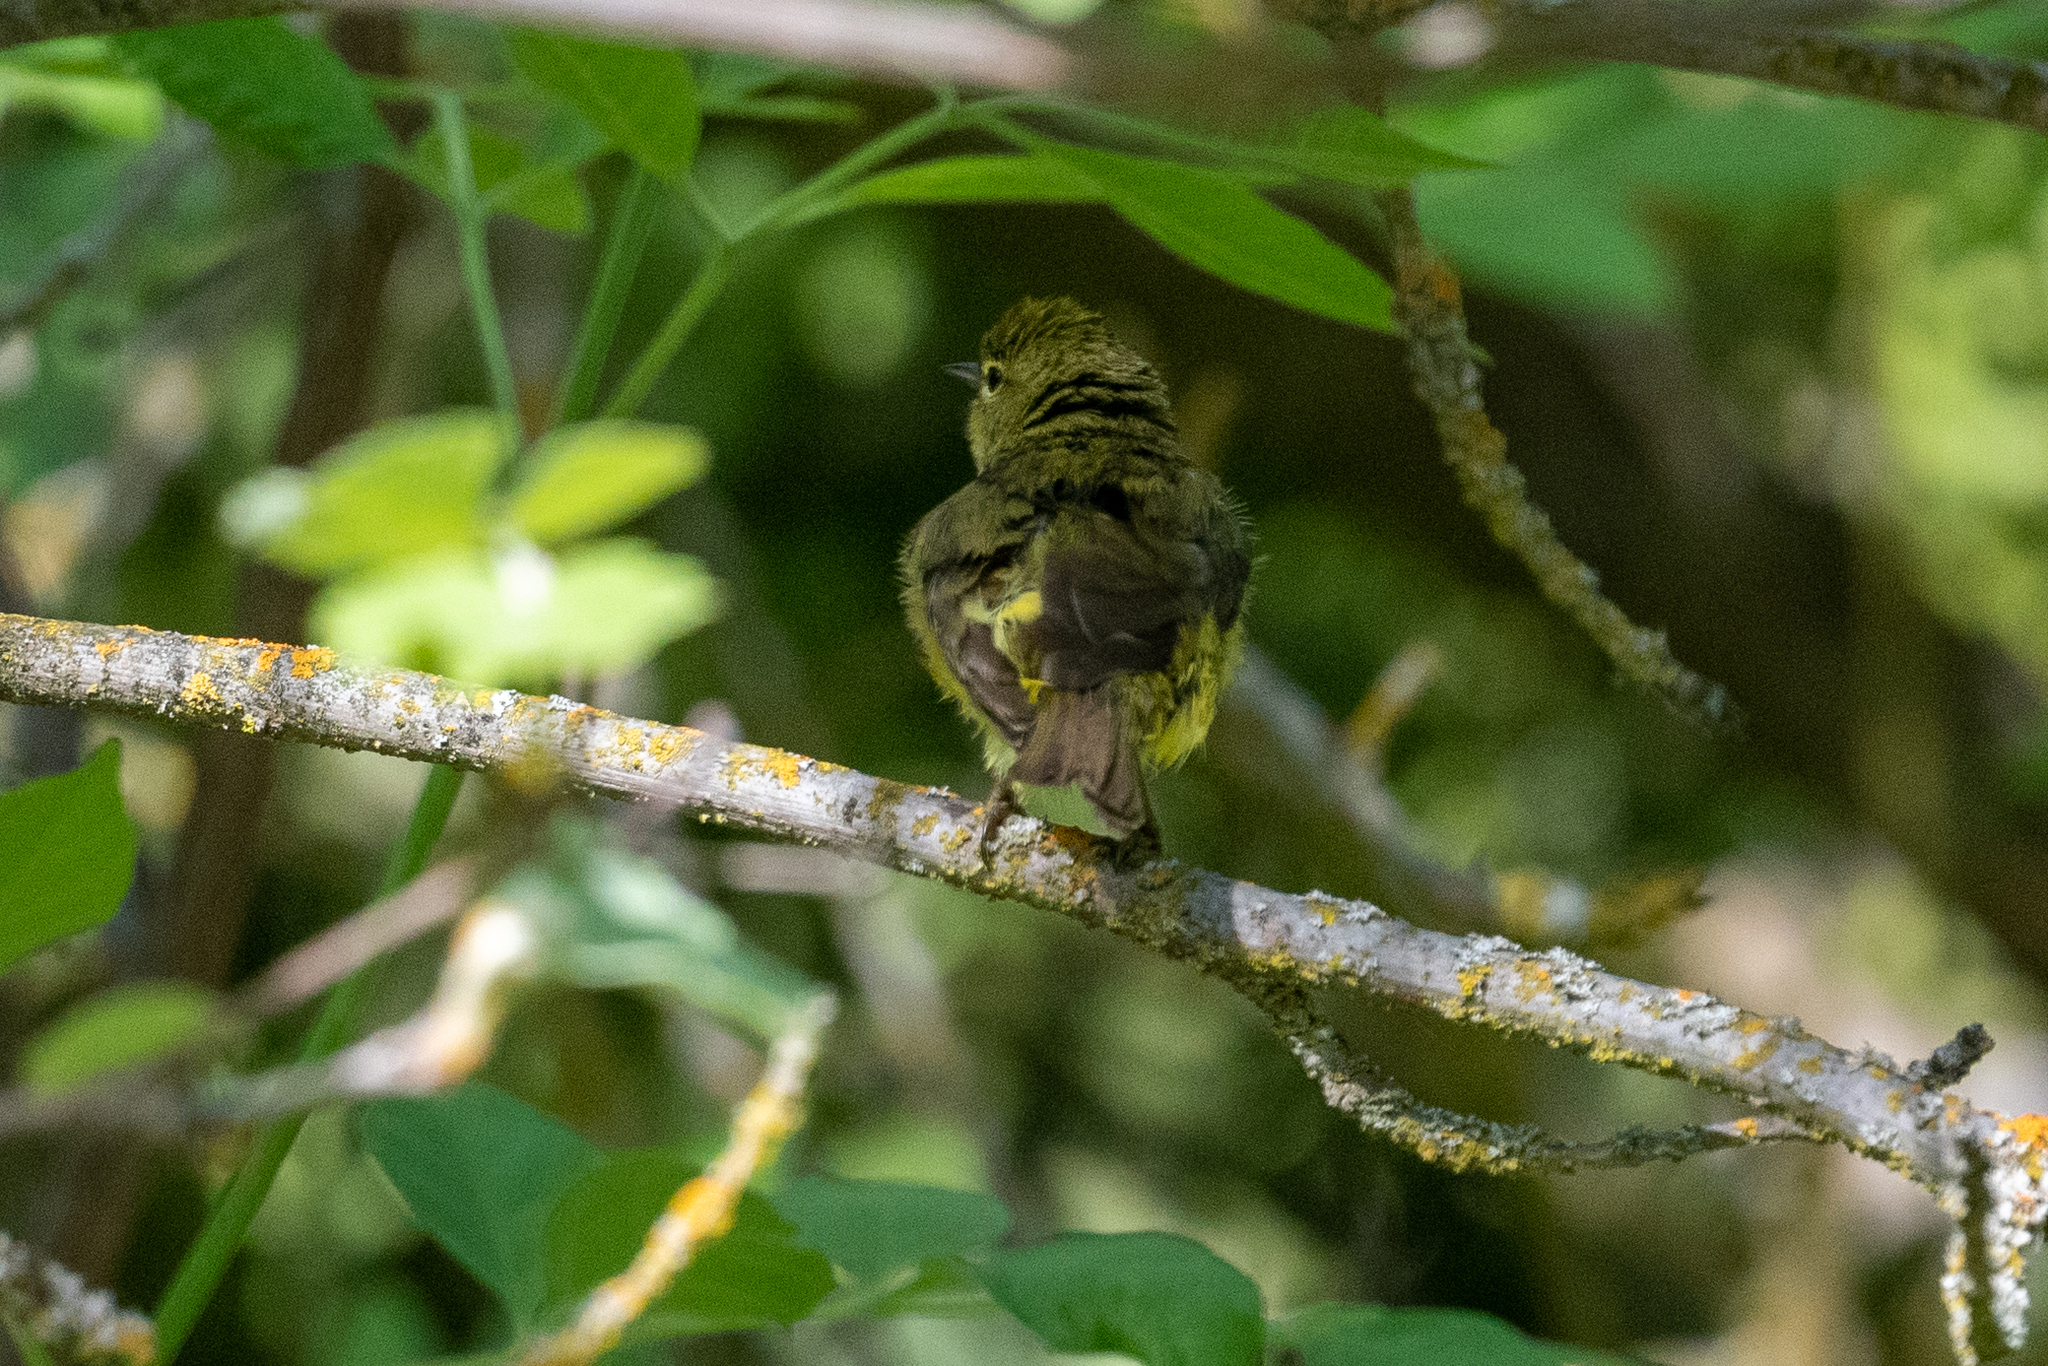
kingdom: Animalia
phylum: Chordata
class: Aves
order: Passeriformes
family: Parulidae
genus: Leiothlypis
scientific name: Leiothlypis celata
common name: Orange-crowned warbler
